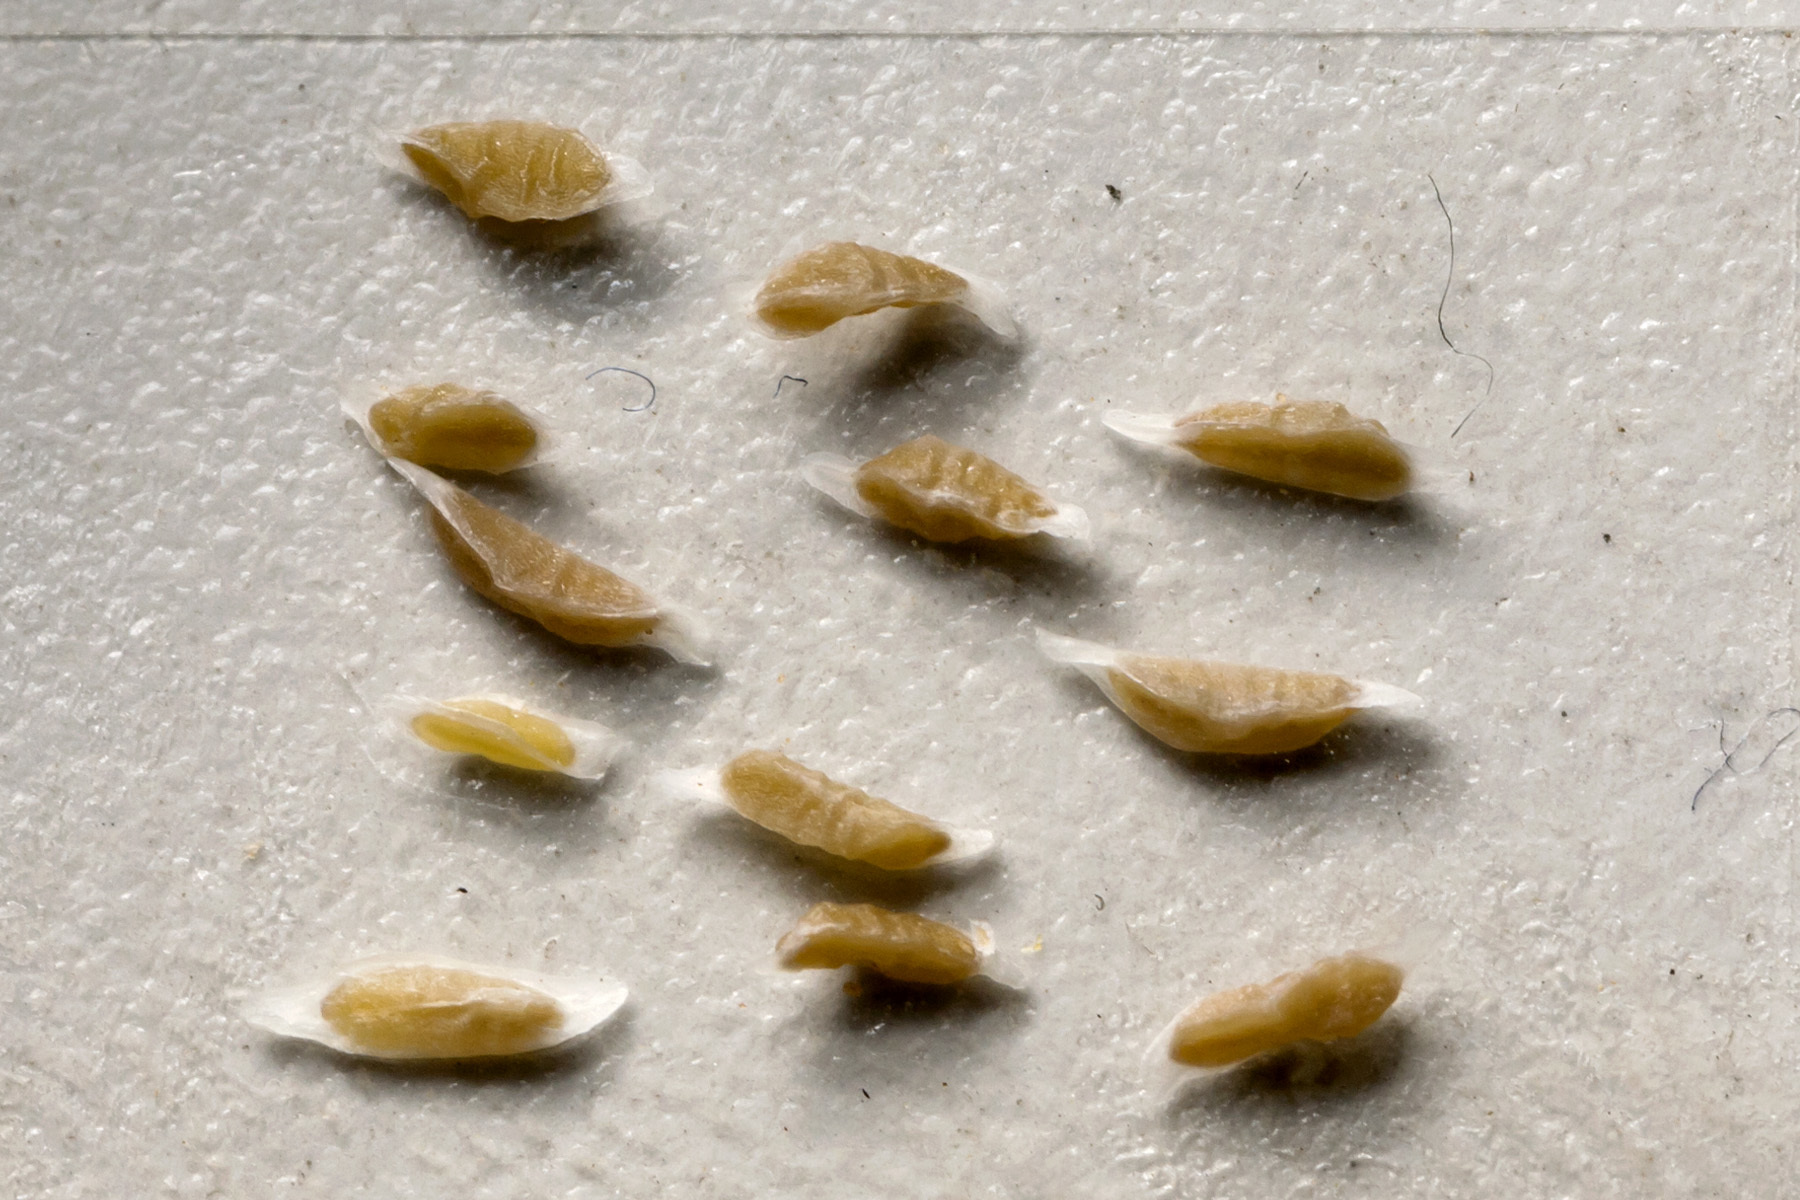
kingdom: Plantae
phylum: Tracheophyta
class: Magnoliopsida
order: Ericales
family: Polemoniaceae
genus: Ipomopsis
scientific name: Ipomopsis longiflora
